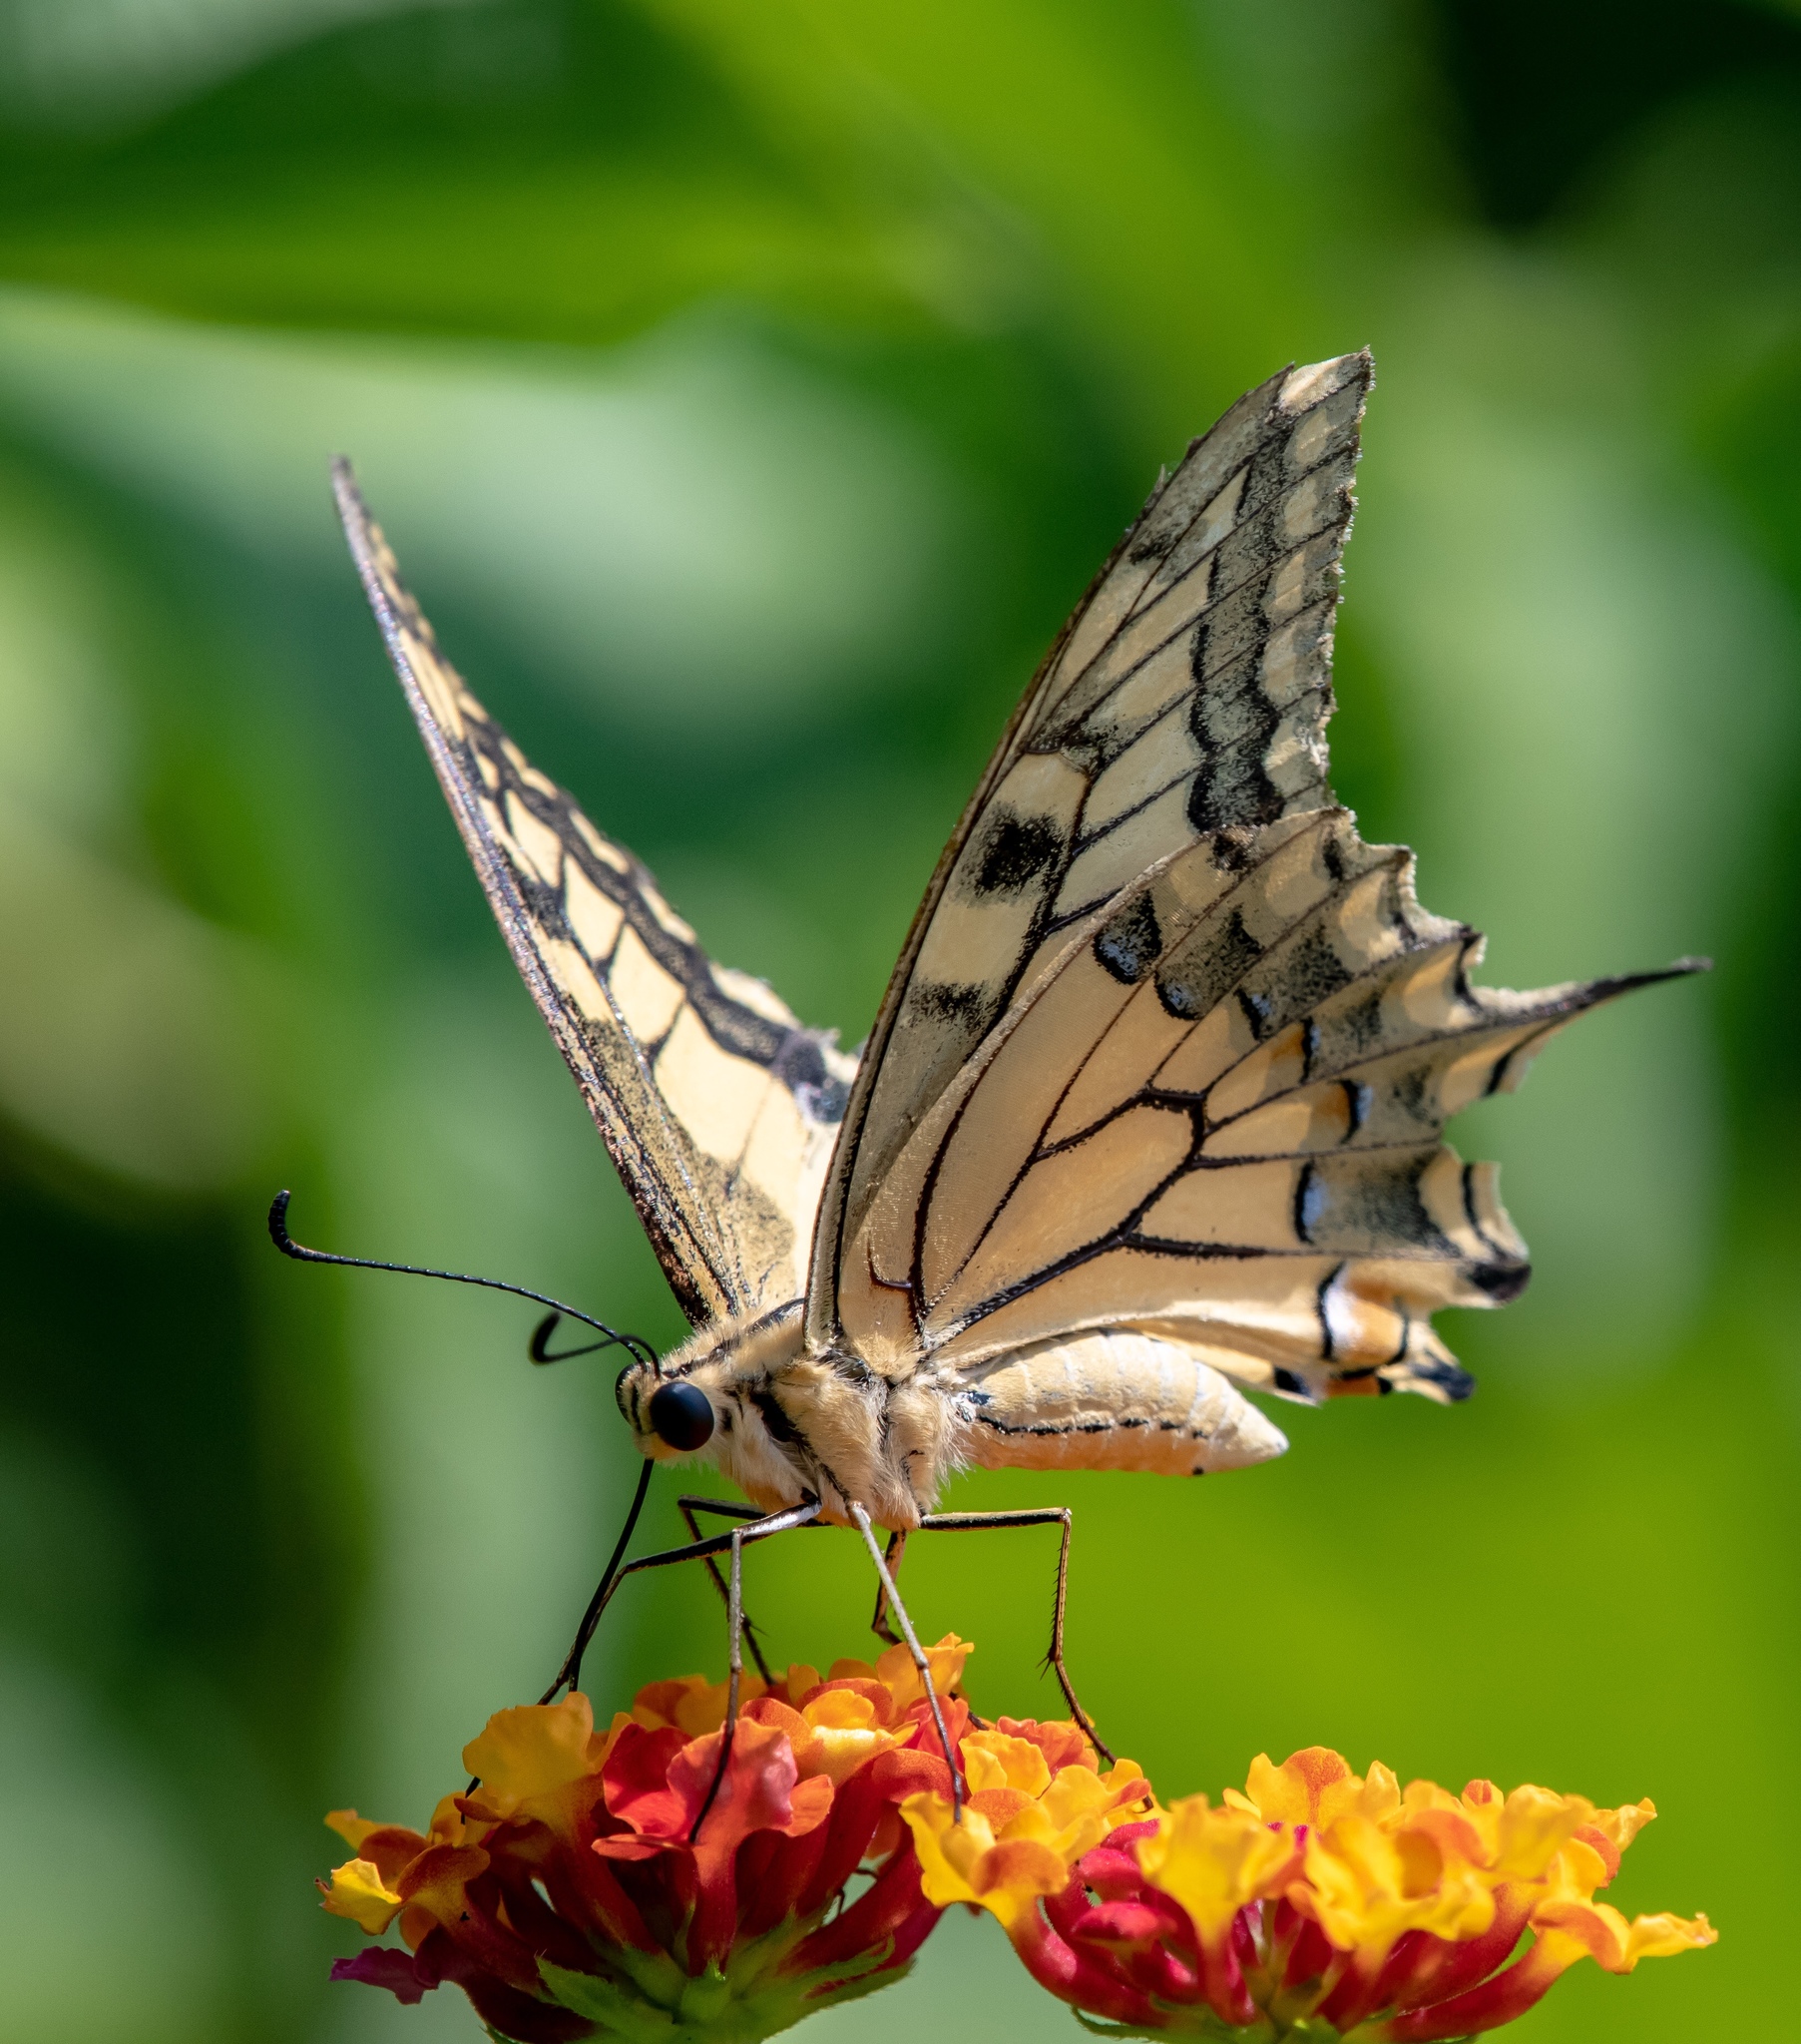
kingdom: Animalia
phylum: Arthropoda
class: Insecta
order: Lepidoptera
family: Papilionidae
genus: Papilio
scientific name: Papilio machaon
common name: Swallowtail
